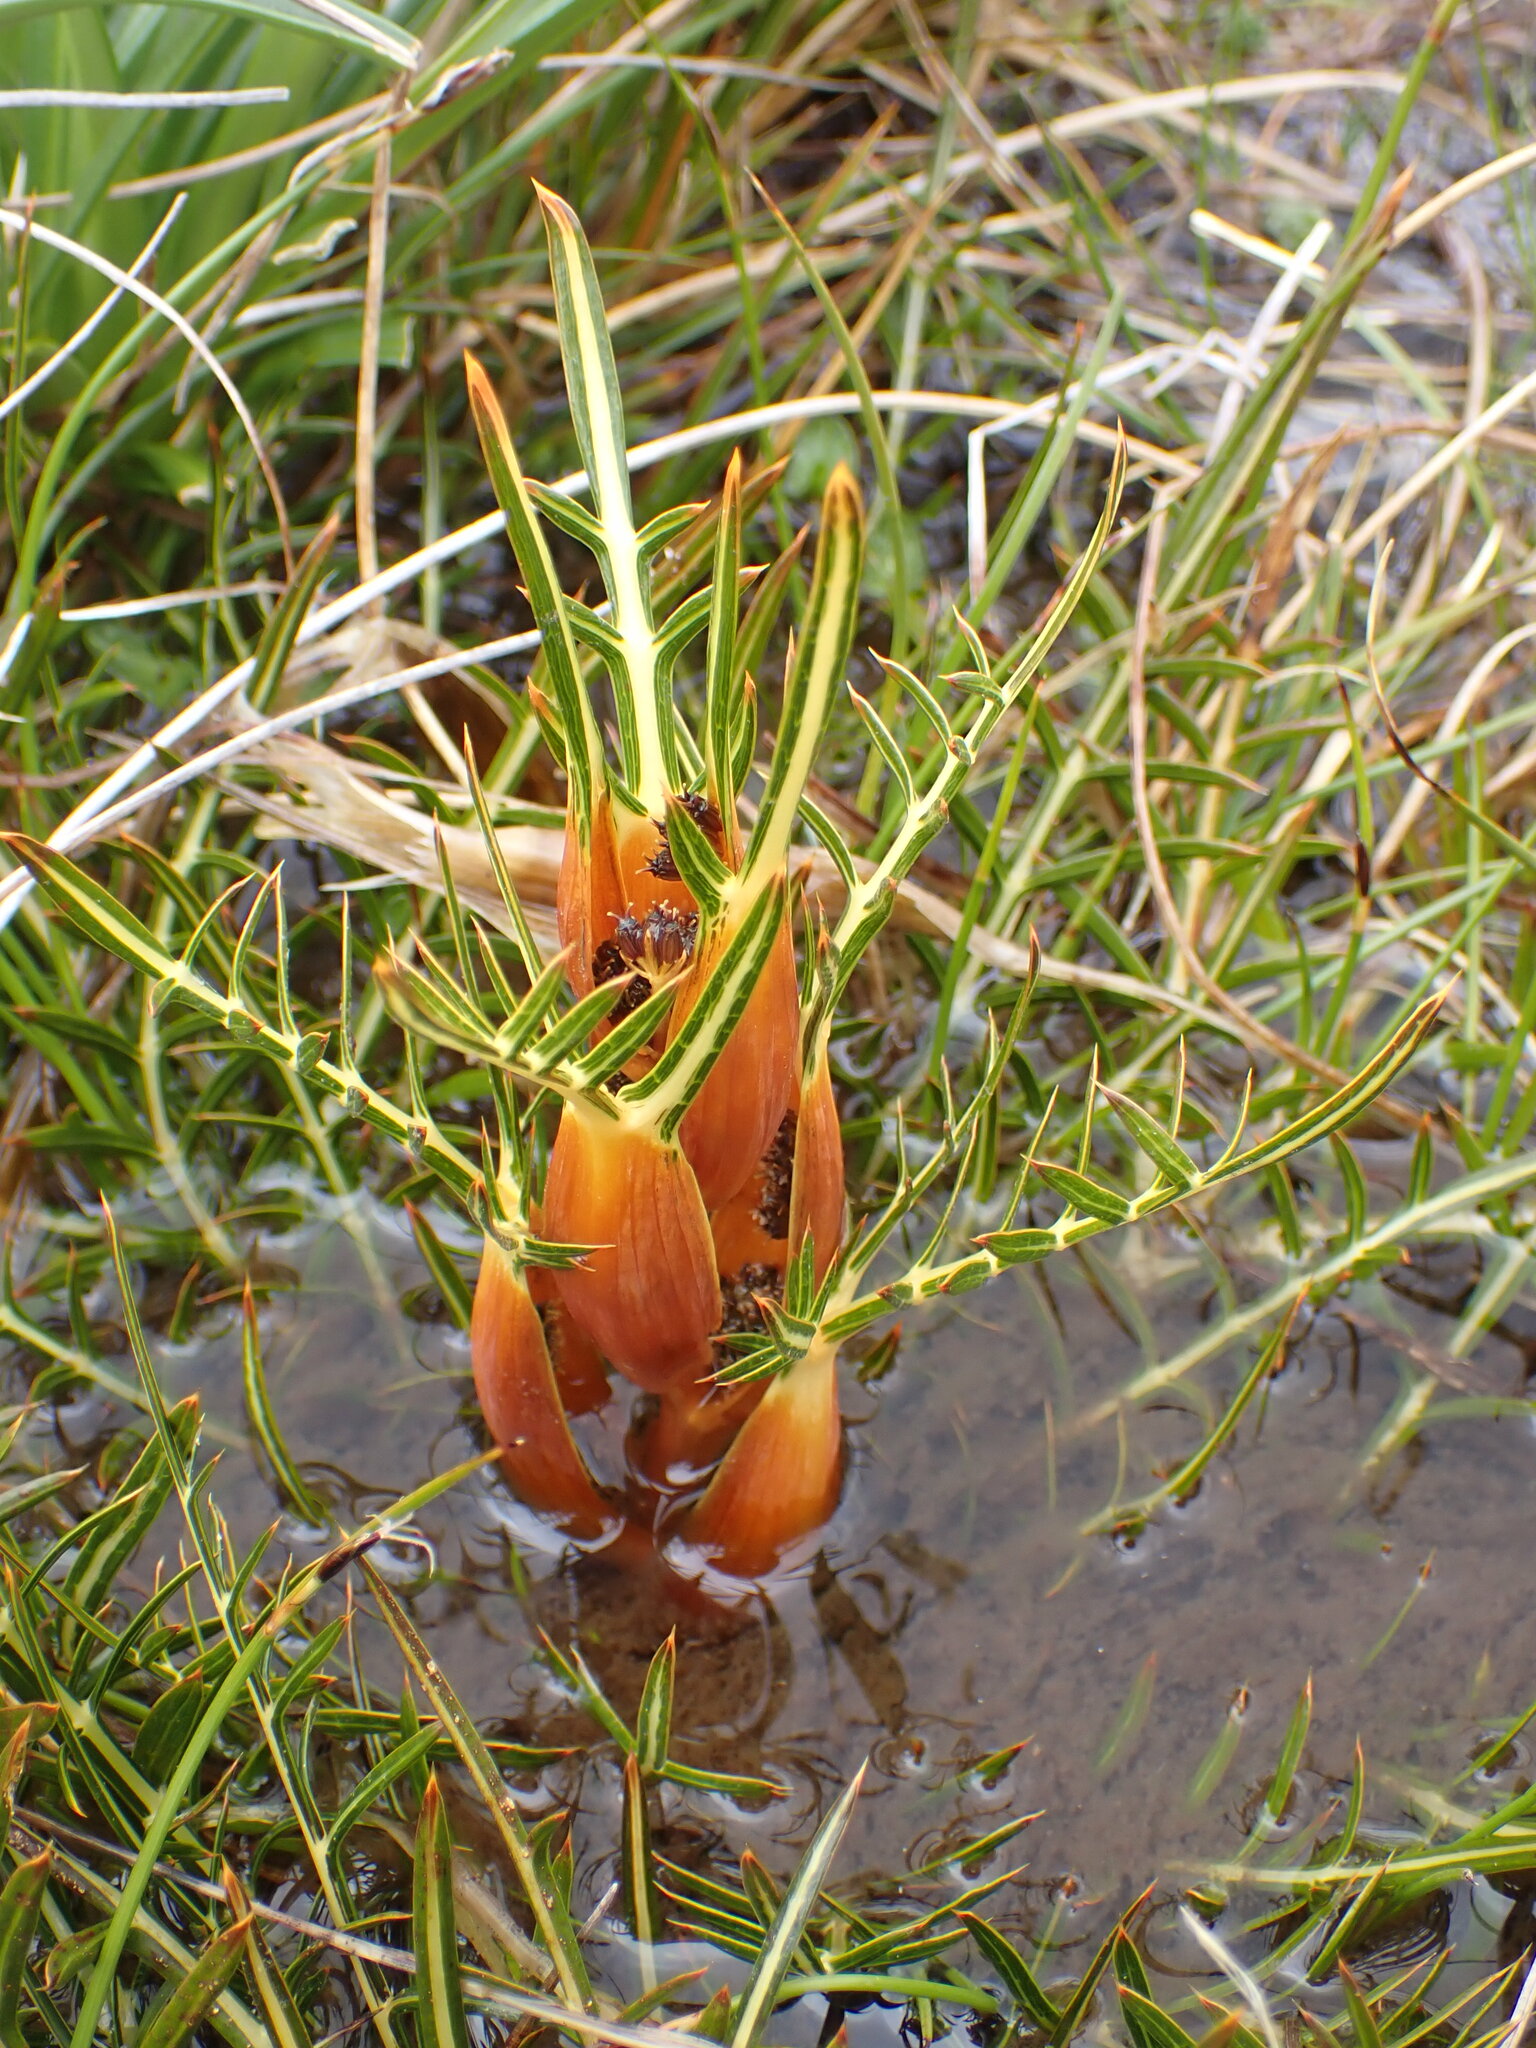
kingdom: Plantae
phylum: Tracheophyta
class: Magnoliopsida
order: Apiales
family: Apiaceae
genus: Aciphylla
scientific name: Aciphylla pinnatifida
